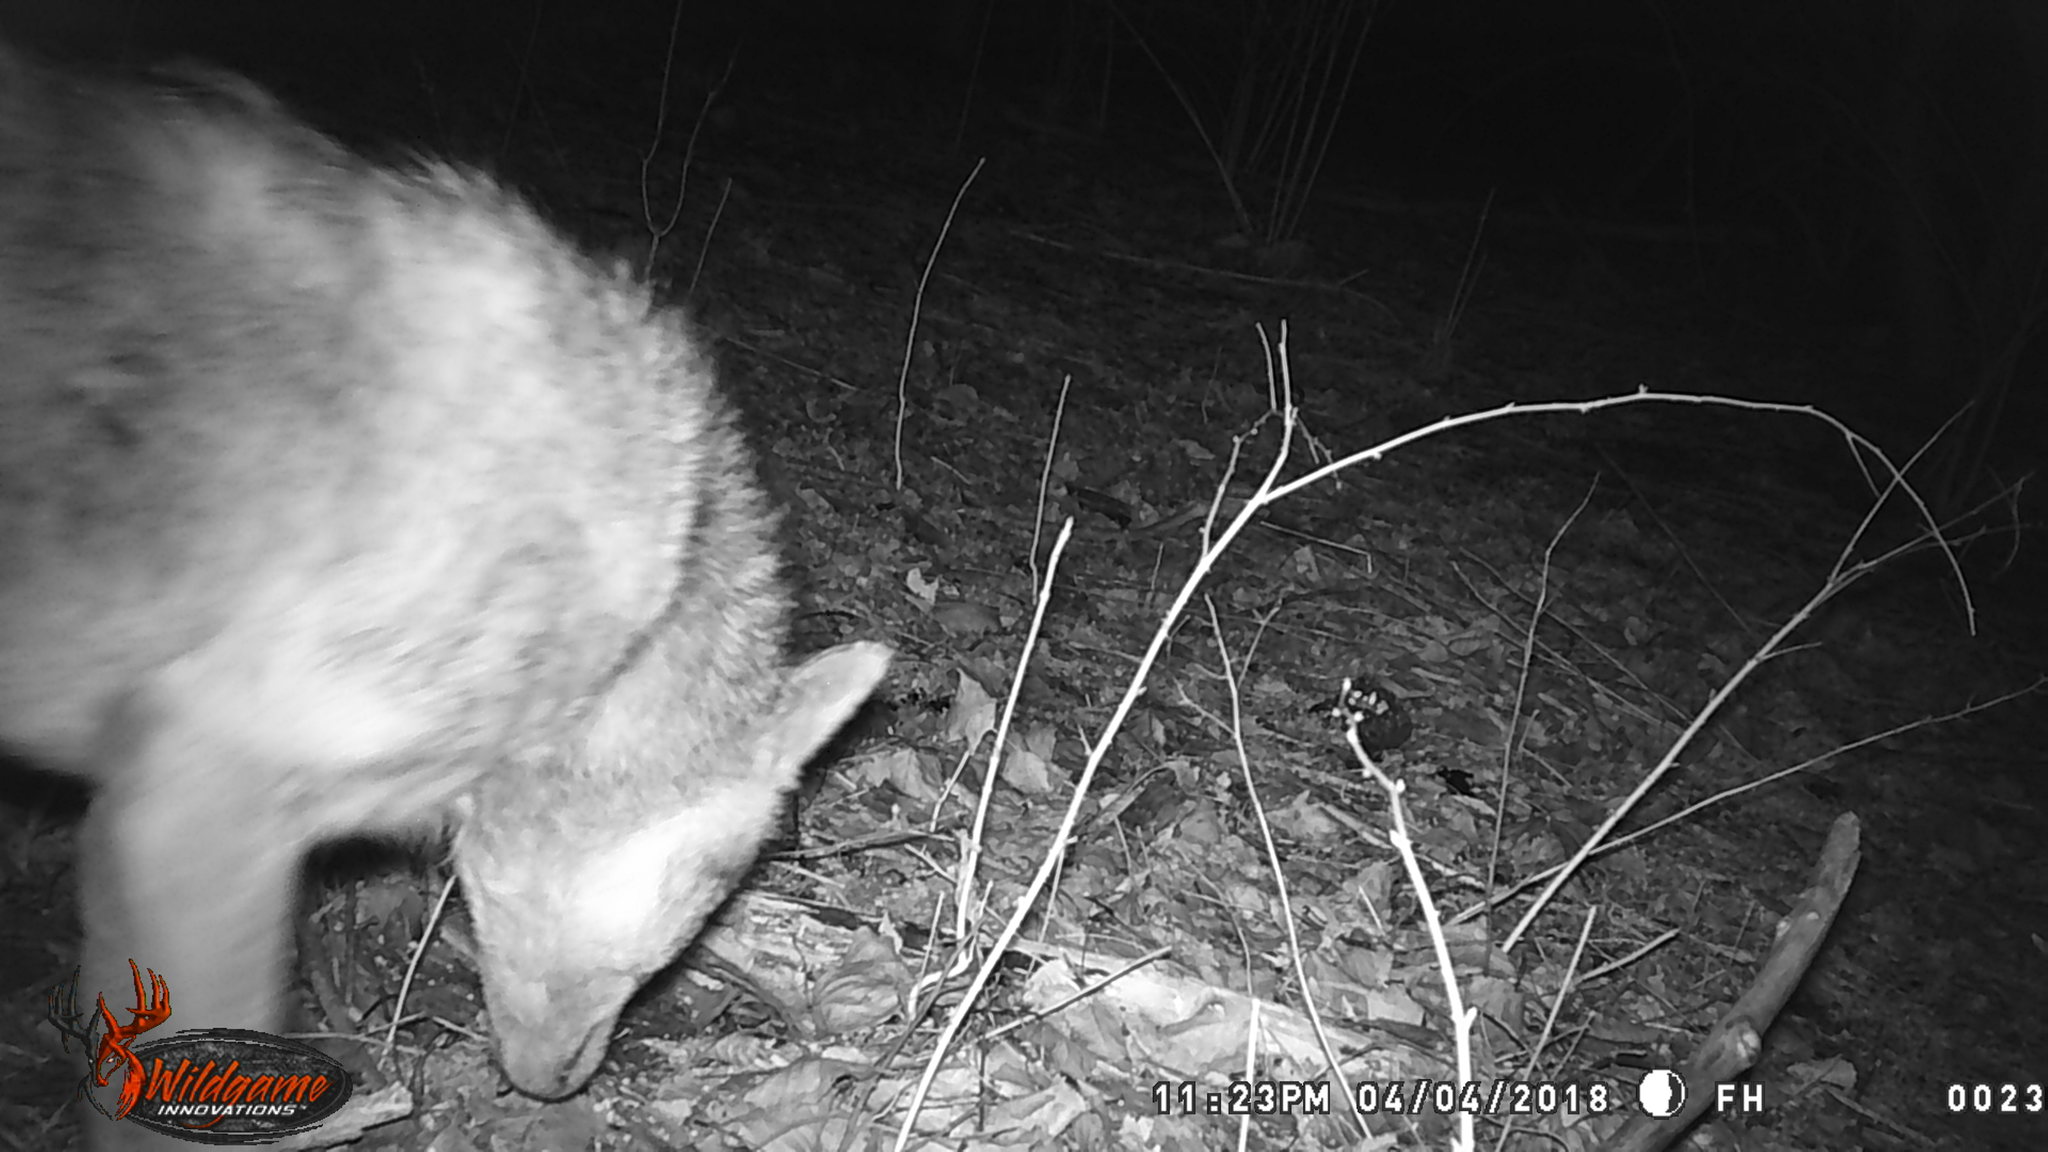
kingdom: Animalia
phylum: Chordata
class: Mammalia
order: Carnivora
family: Canidae
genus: Canis
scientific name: Canis latrans
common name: Coyote
